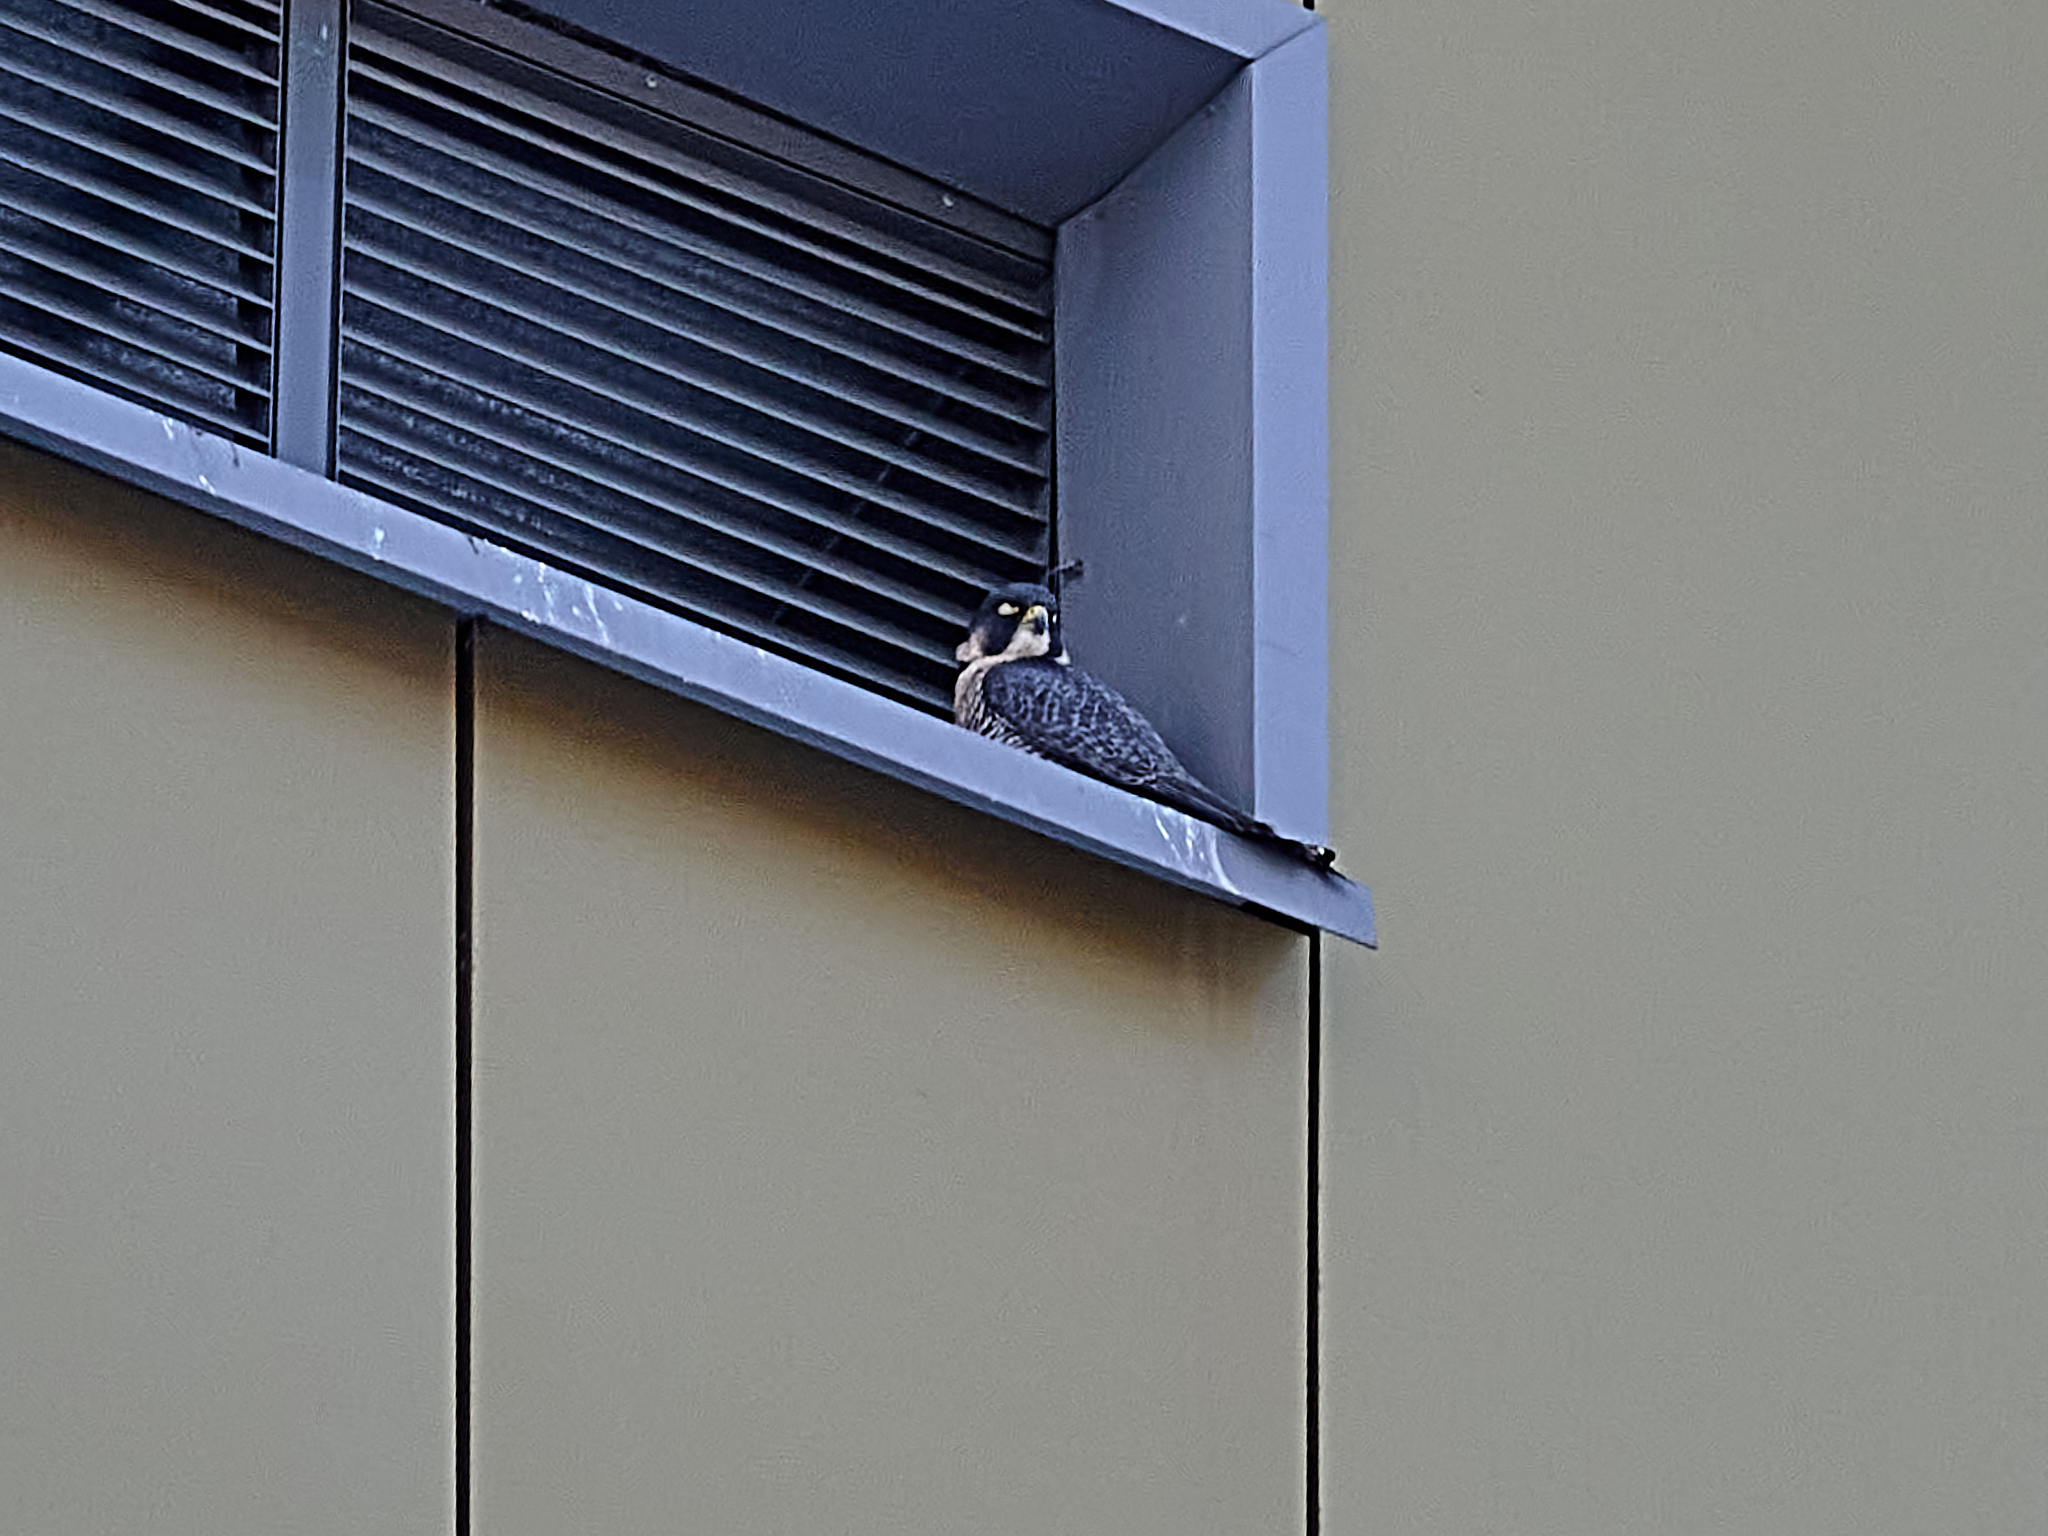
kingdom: Animalia
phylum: Chordata
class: Aves
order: Falconiformes
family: Falconidae
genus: Falco
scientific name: Falco peregrinus
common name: Peregrine falcon
